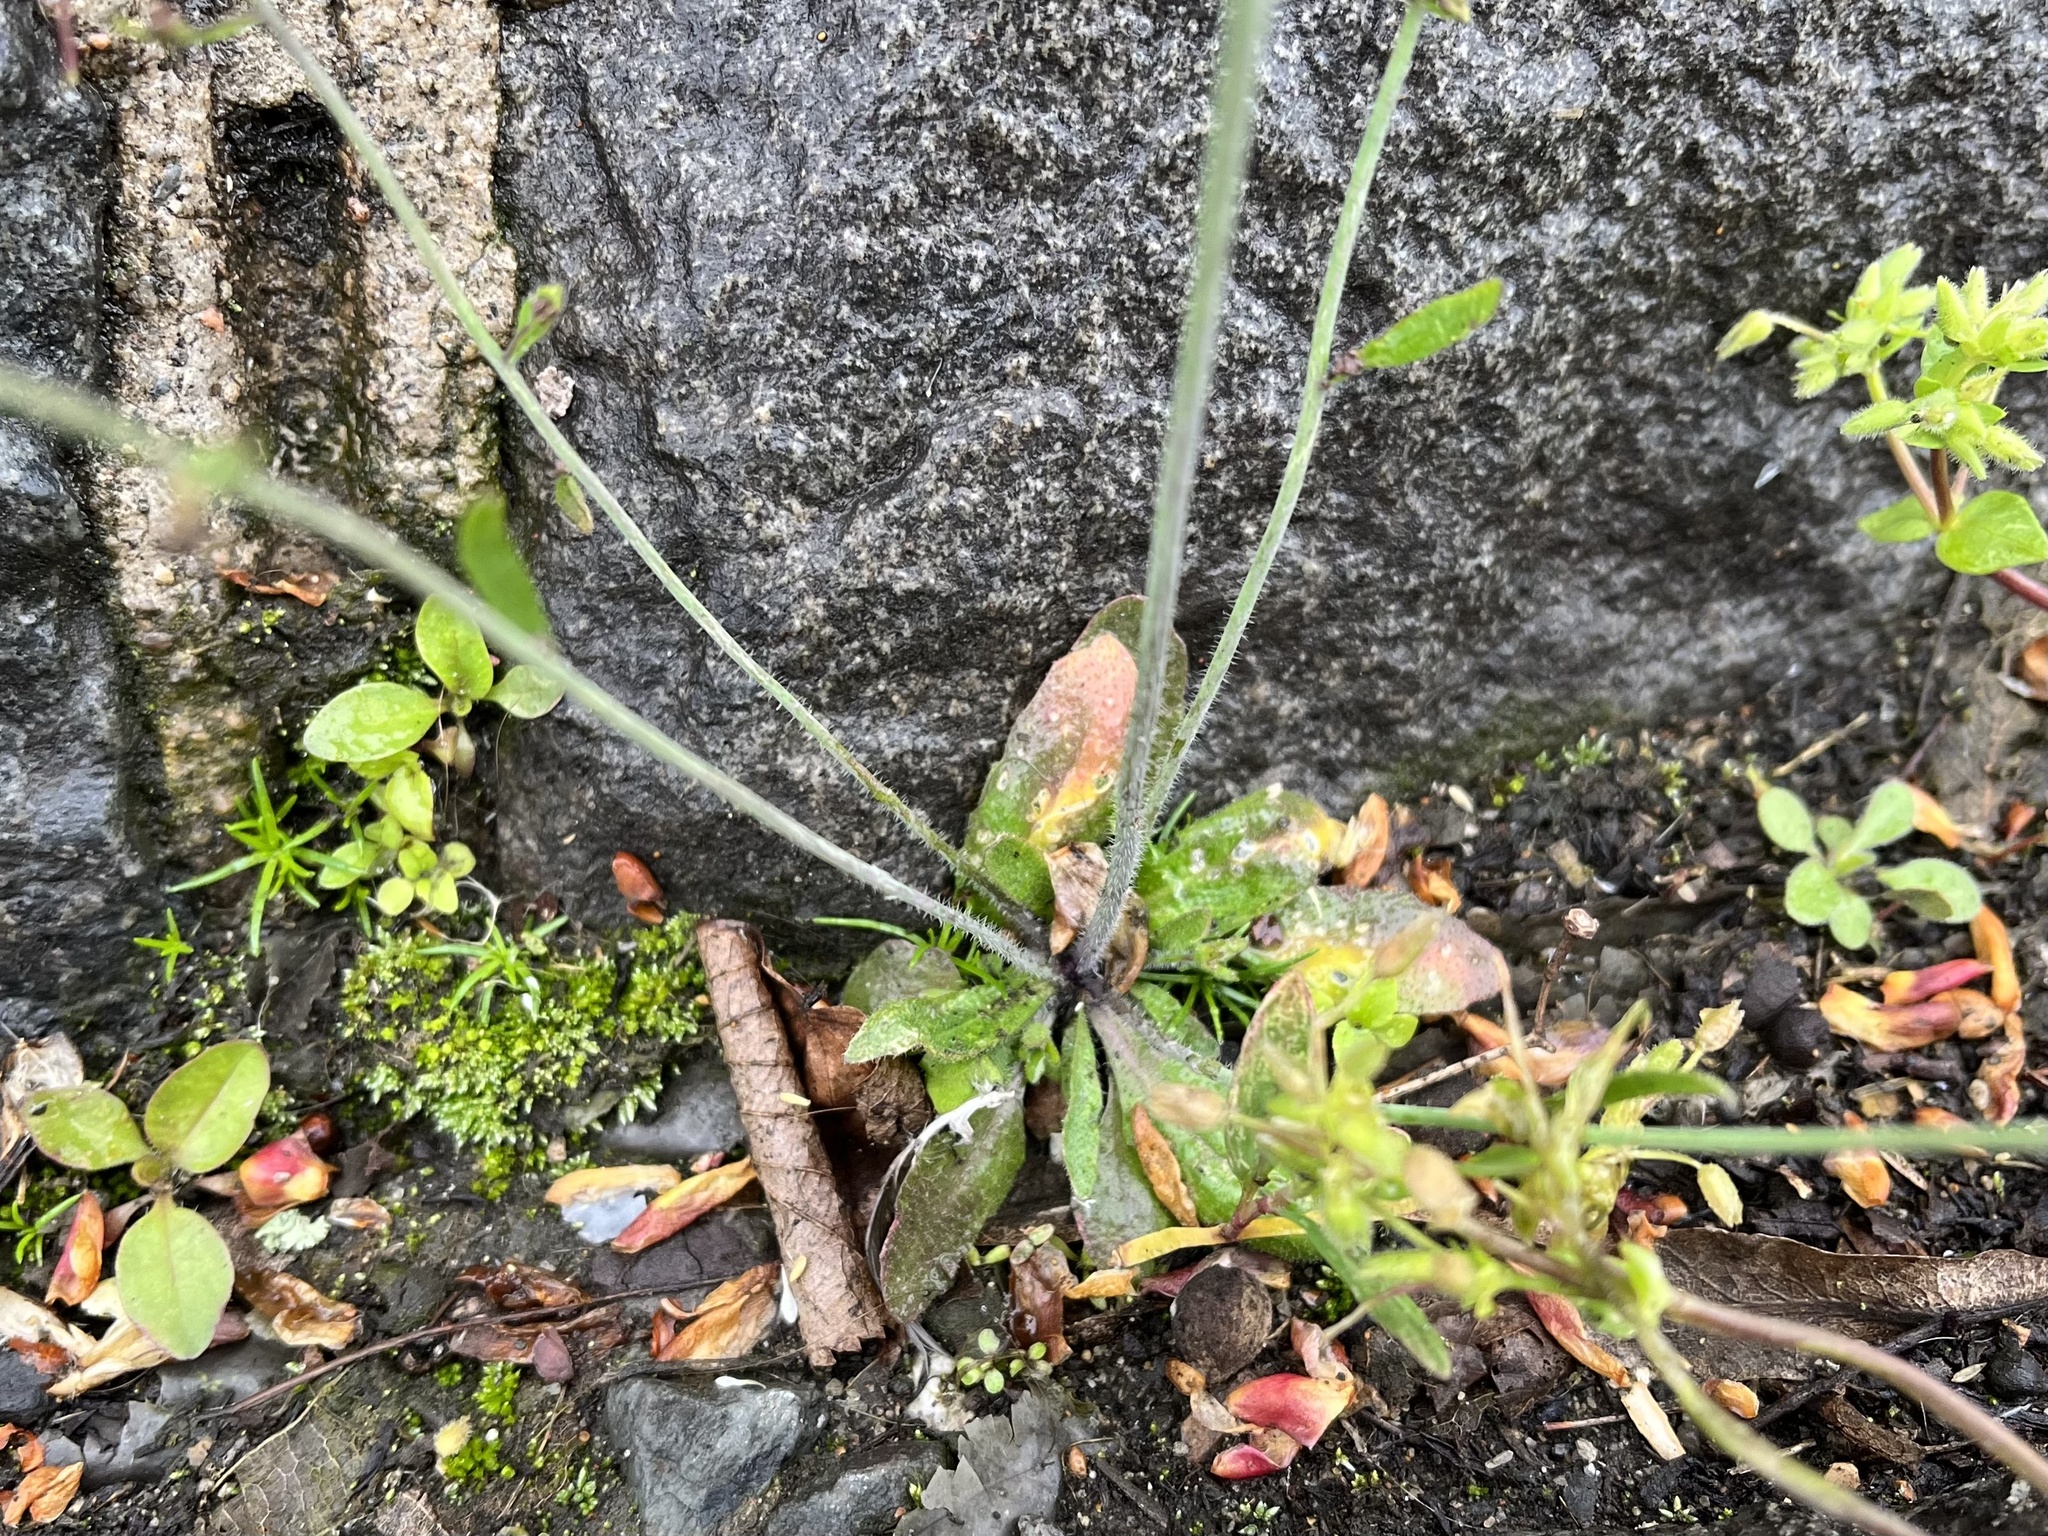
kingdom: Plantae
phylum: Tracheophyta
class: Magnoliopsida
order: Brassicales
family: Brassicaceae
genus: Arabidopsis
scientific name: Arabidopsis thaliana
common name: Thale cress
